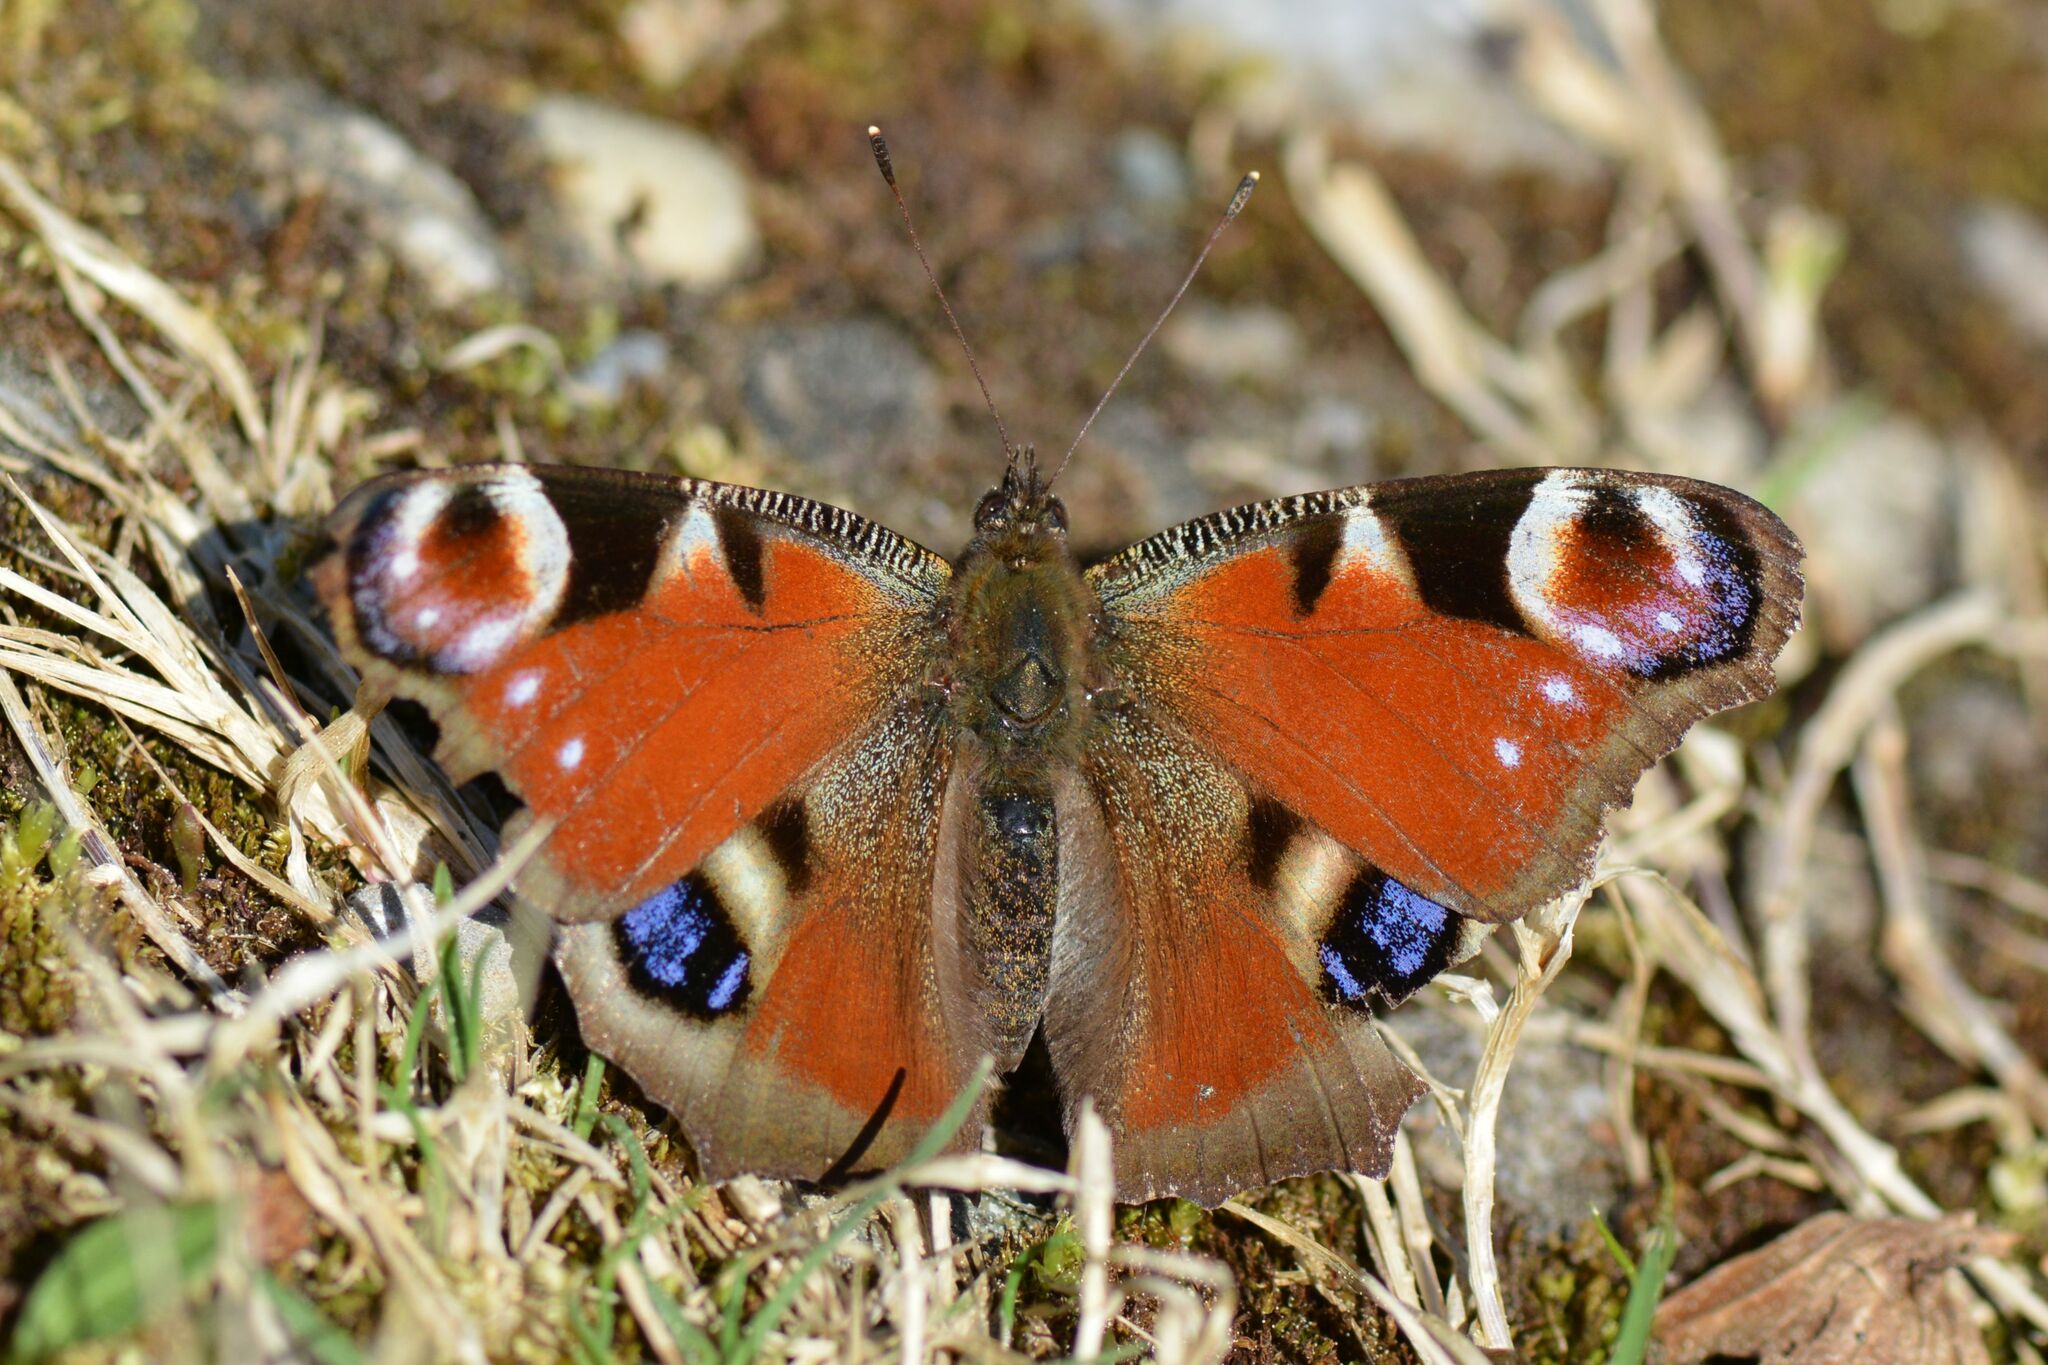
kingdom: Animalia
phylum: Arthropoda
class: Insecta
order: Lepidoptera
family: Nymphalidae
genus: Aglais
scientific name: Aglais io
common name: Peacock
